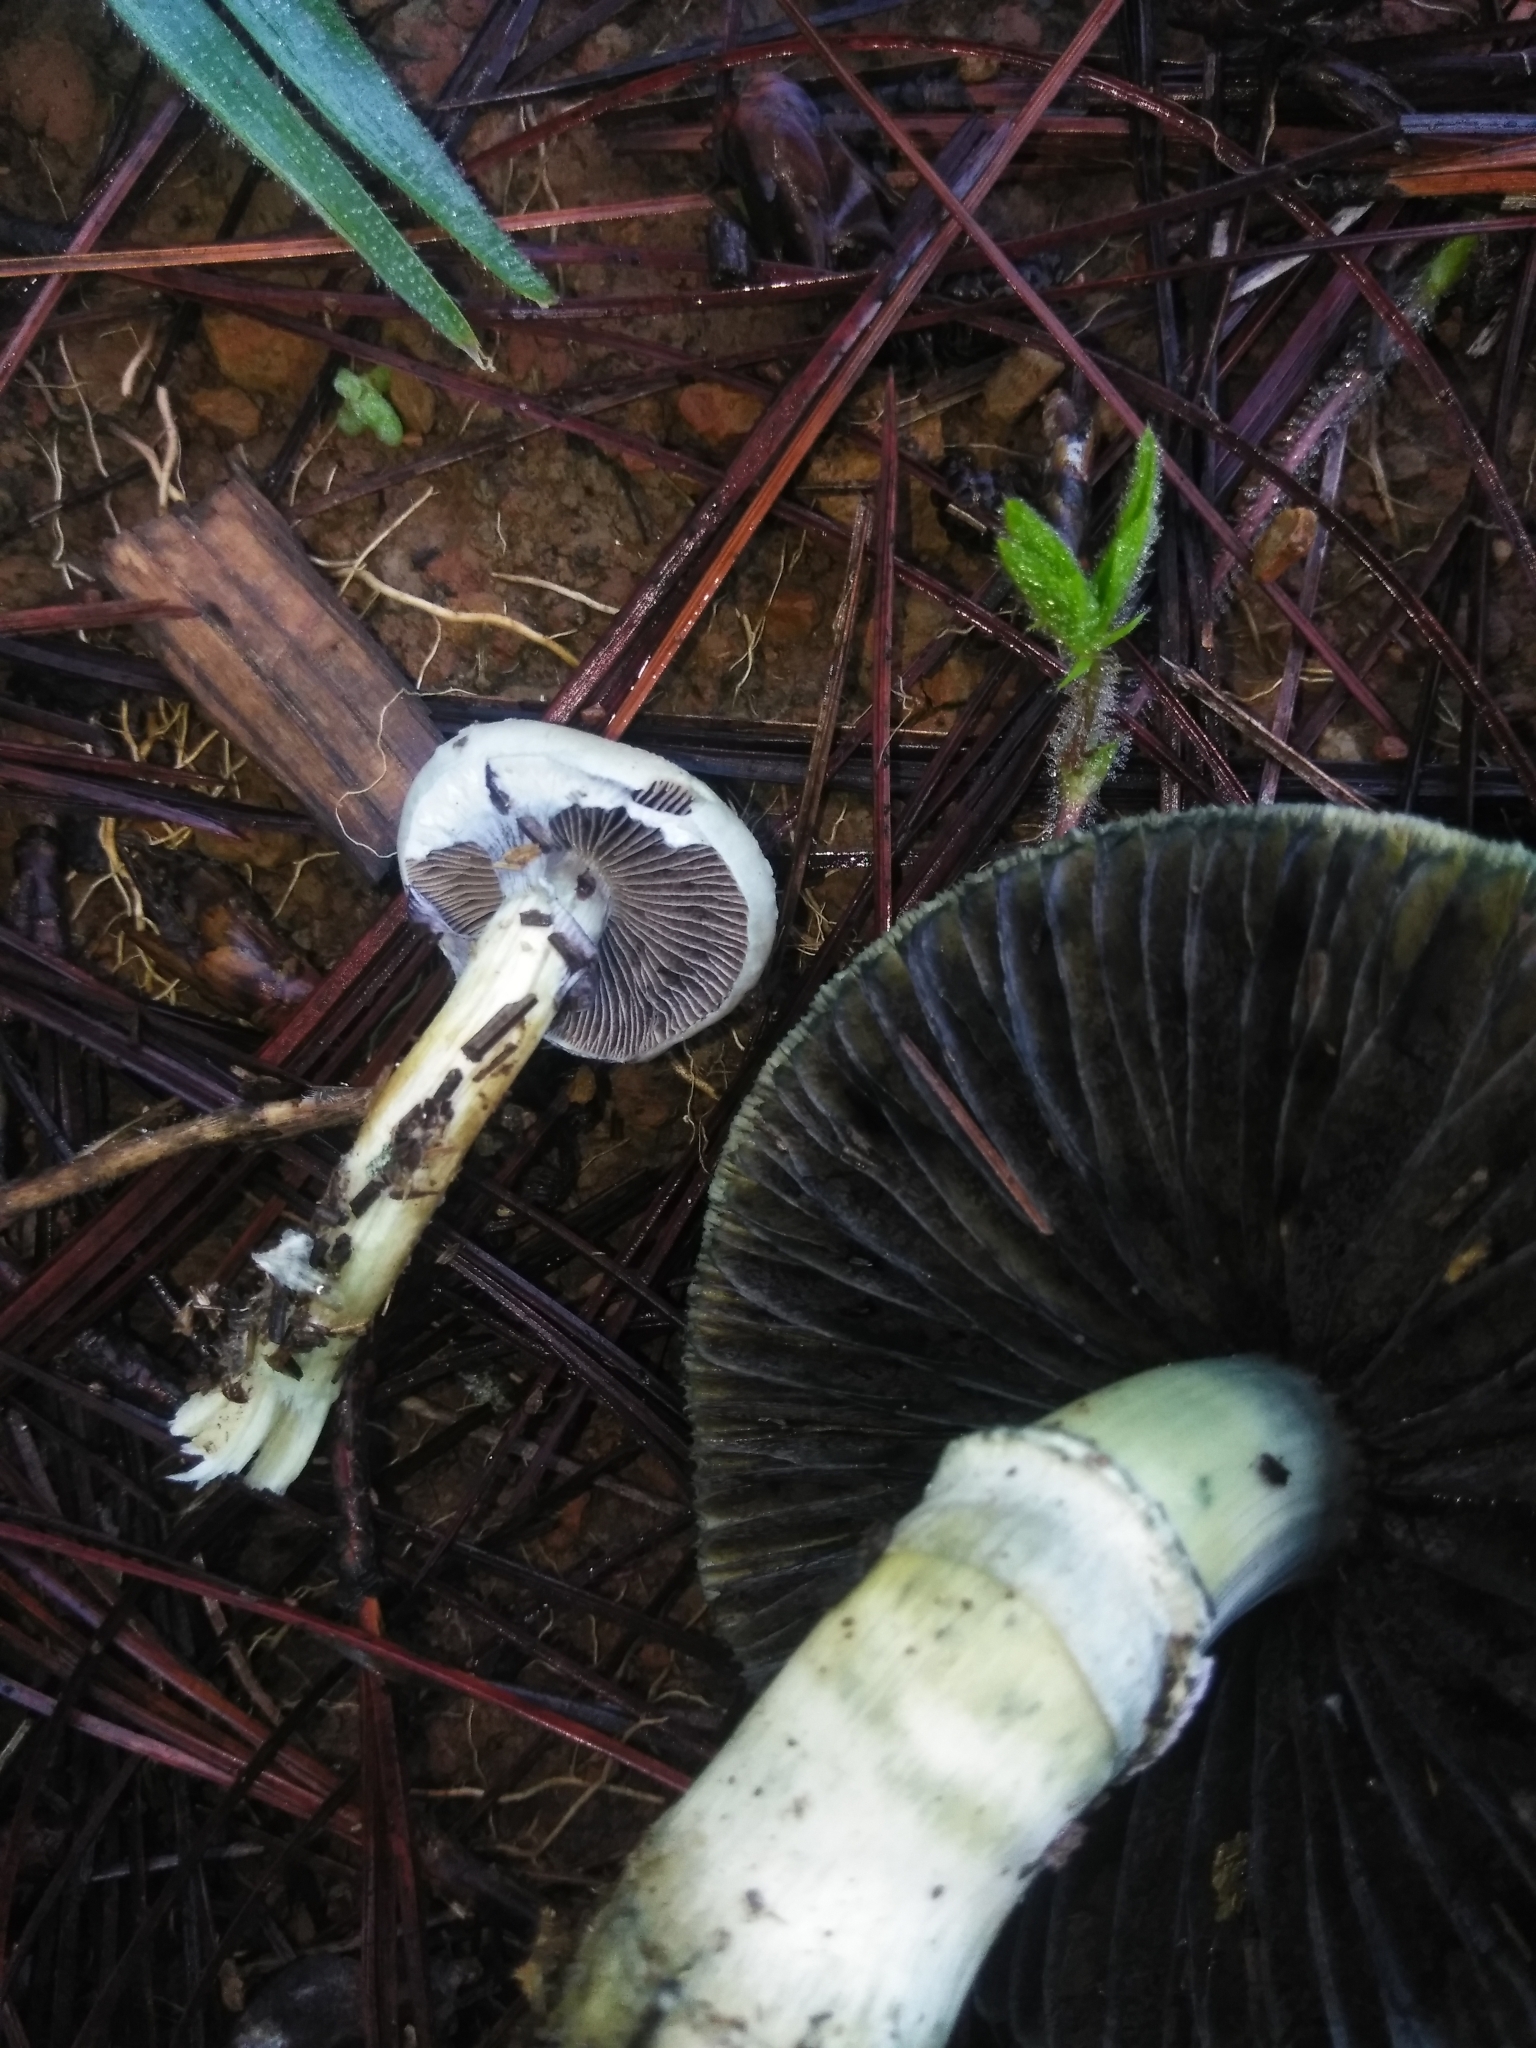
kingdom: Fungi
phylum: Basidiomycota
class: Agaricomycetes
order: Agaricales
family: Hymenogastraceae
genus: Psilocybe
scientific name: Psilocybe cubensis
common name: Golden brownie
